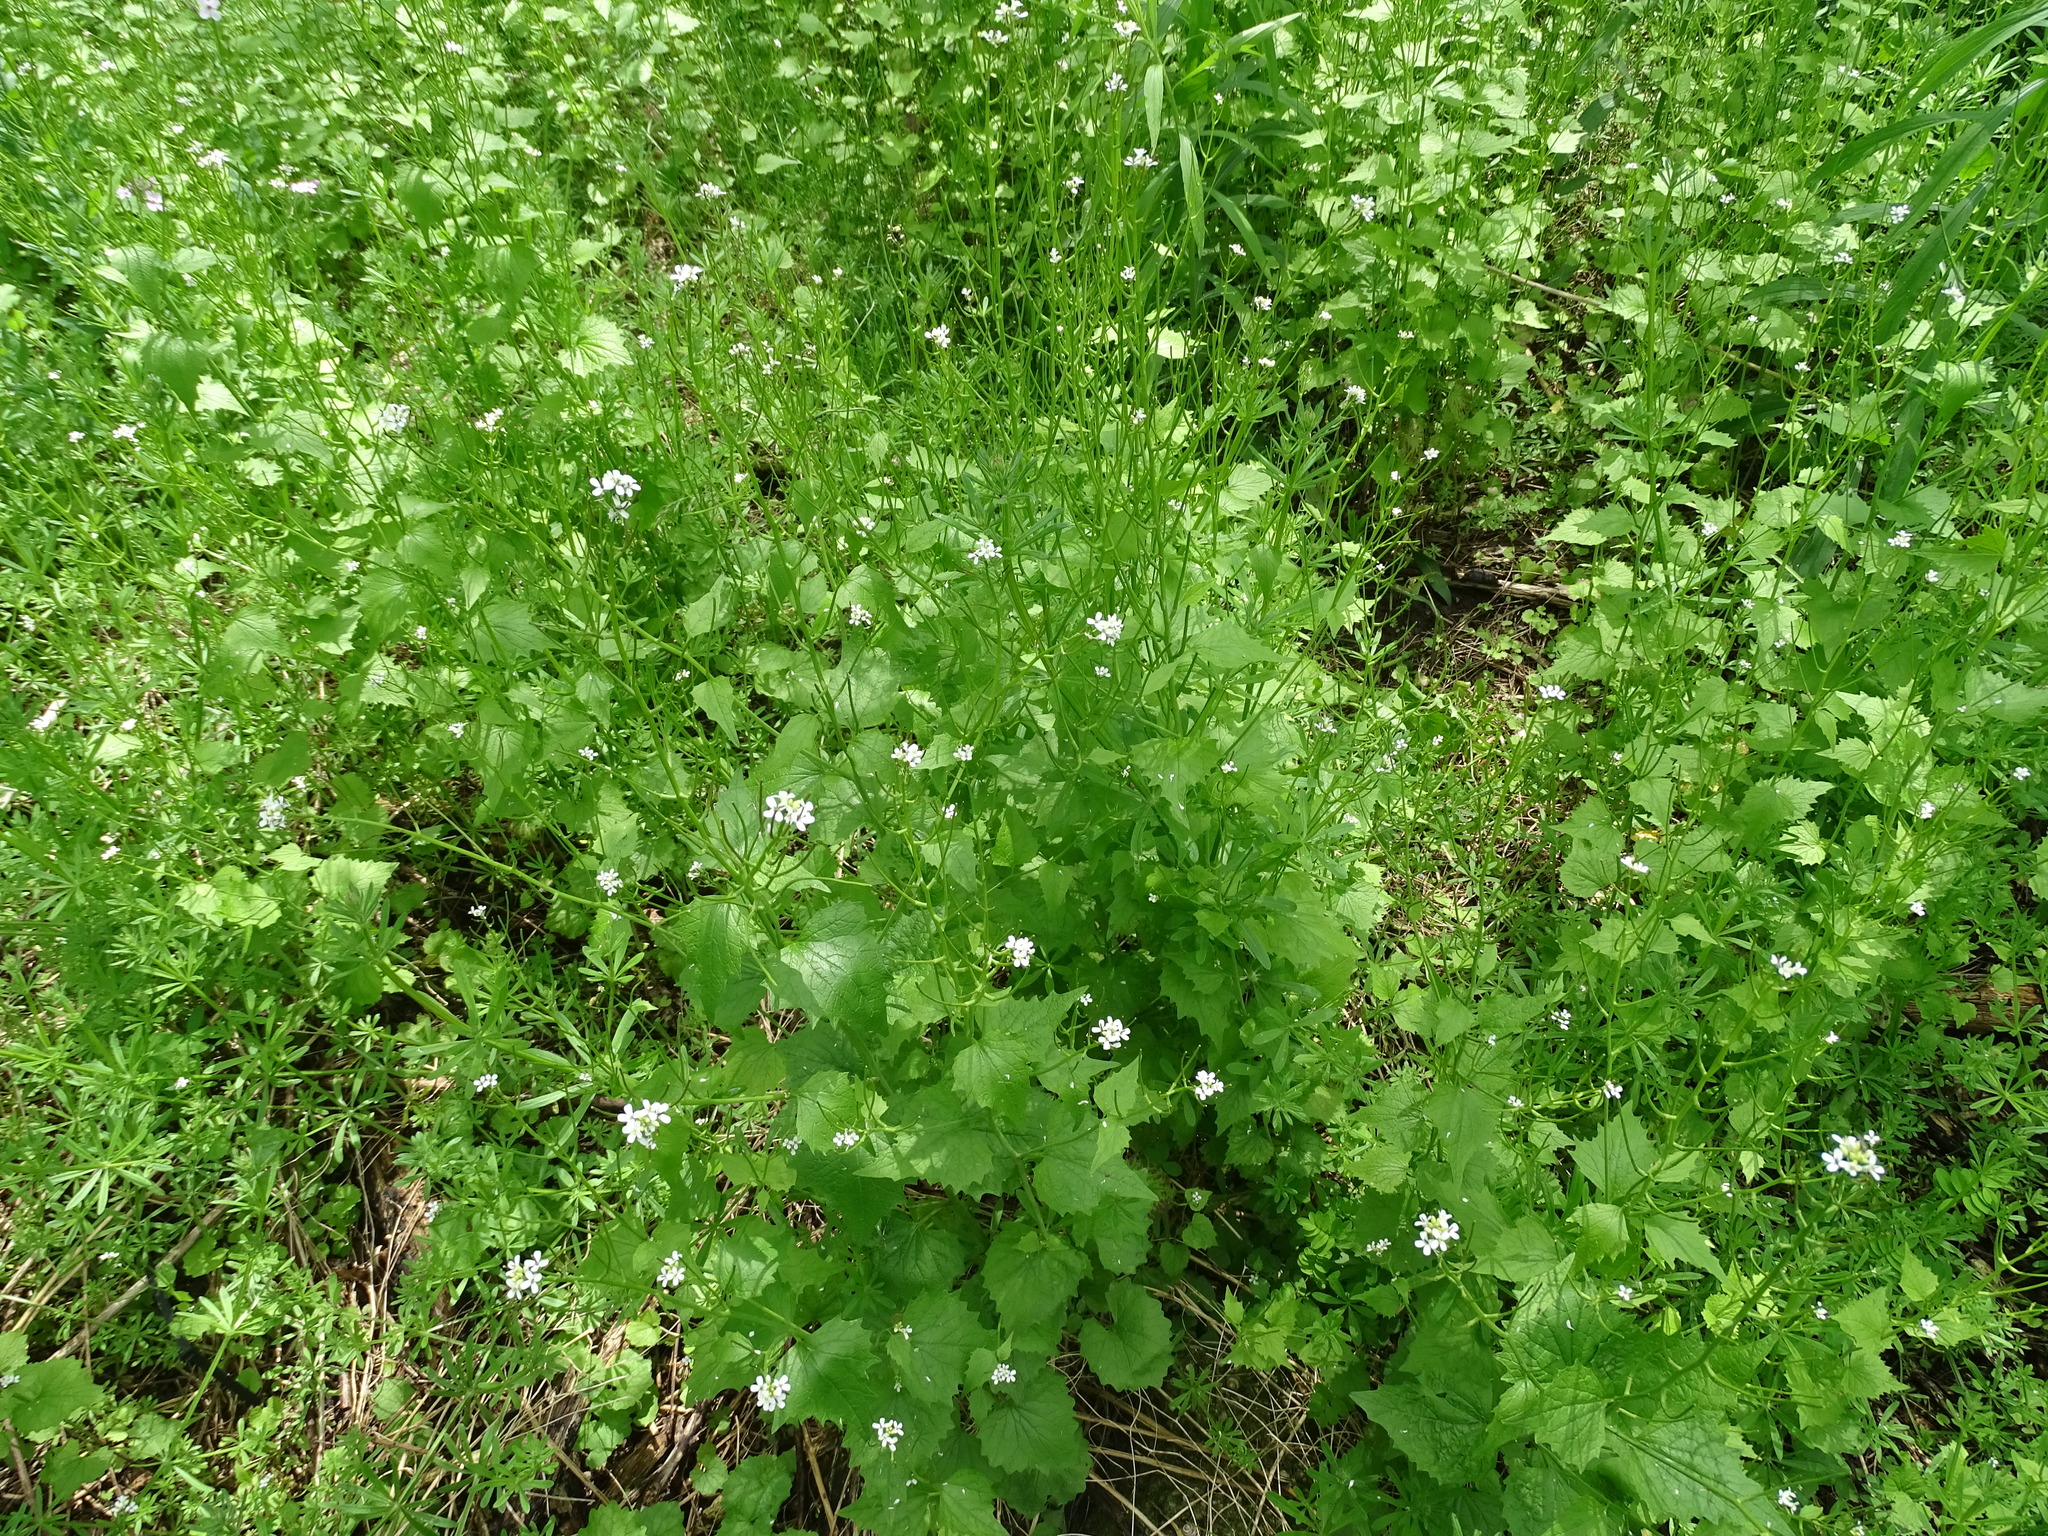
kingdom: Plantae
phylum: Tracheophyta
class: Magnoliopsida
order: Brassicales
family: Brassicaceae
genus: Alliaria
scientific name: Alliaria petiolata
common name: Garlic mustard
